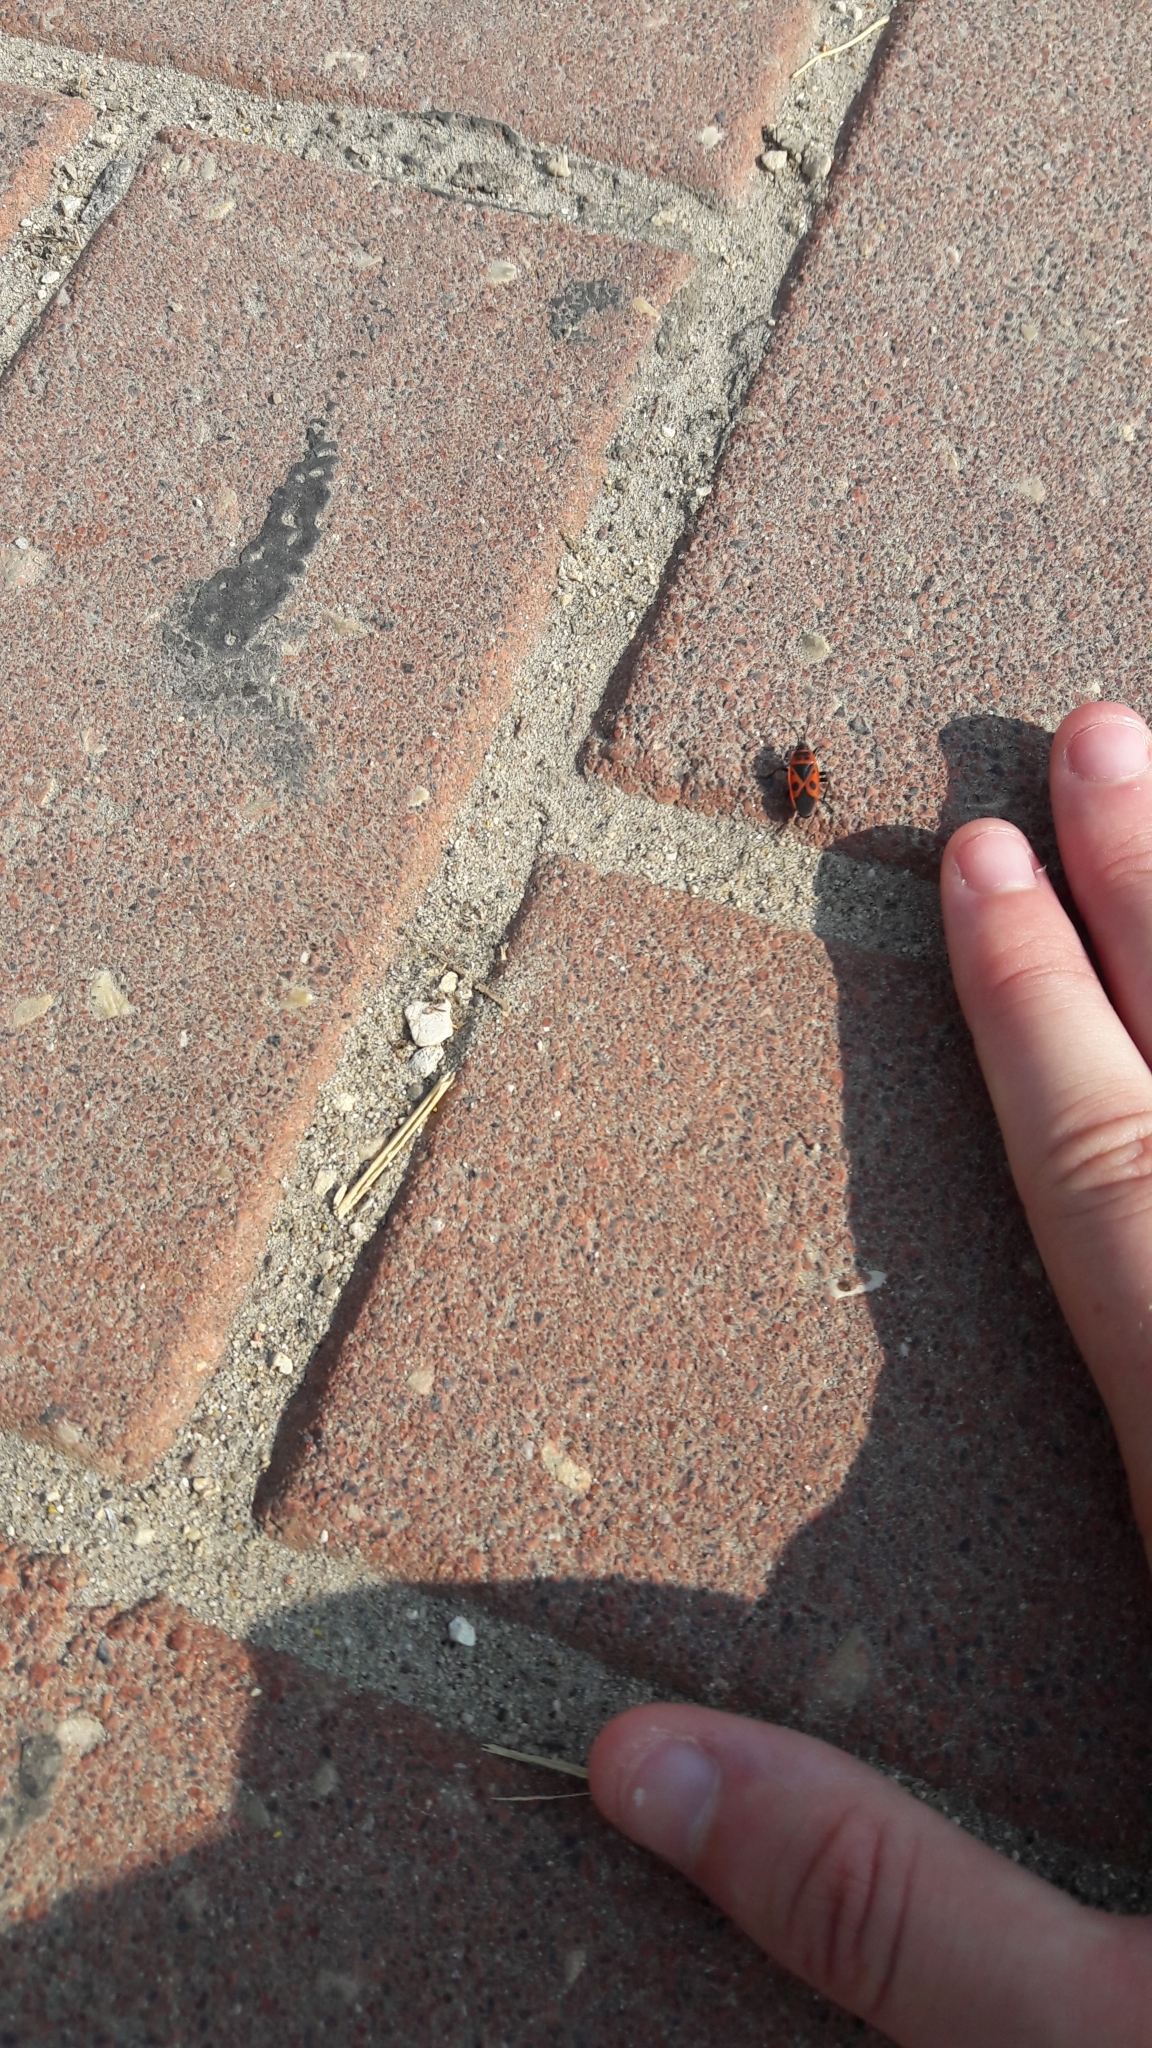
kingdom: Animalia
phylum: Arthropoda
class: Insecta
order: Hemiptera
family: Pyrrhocoridae
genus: Pyrrhocoris
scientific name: Pyrrhocoris apterus
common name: Firebug
